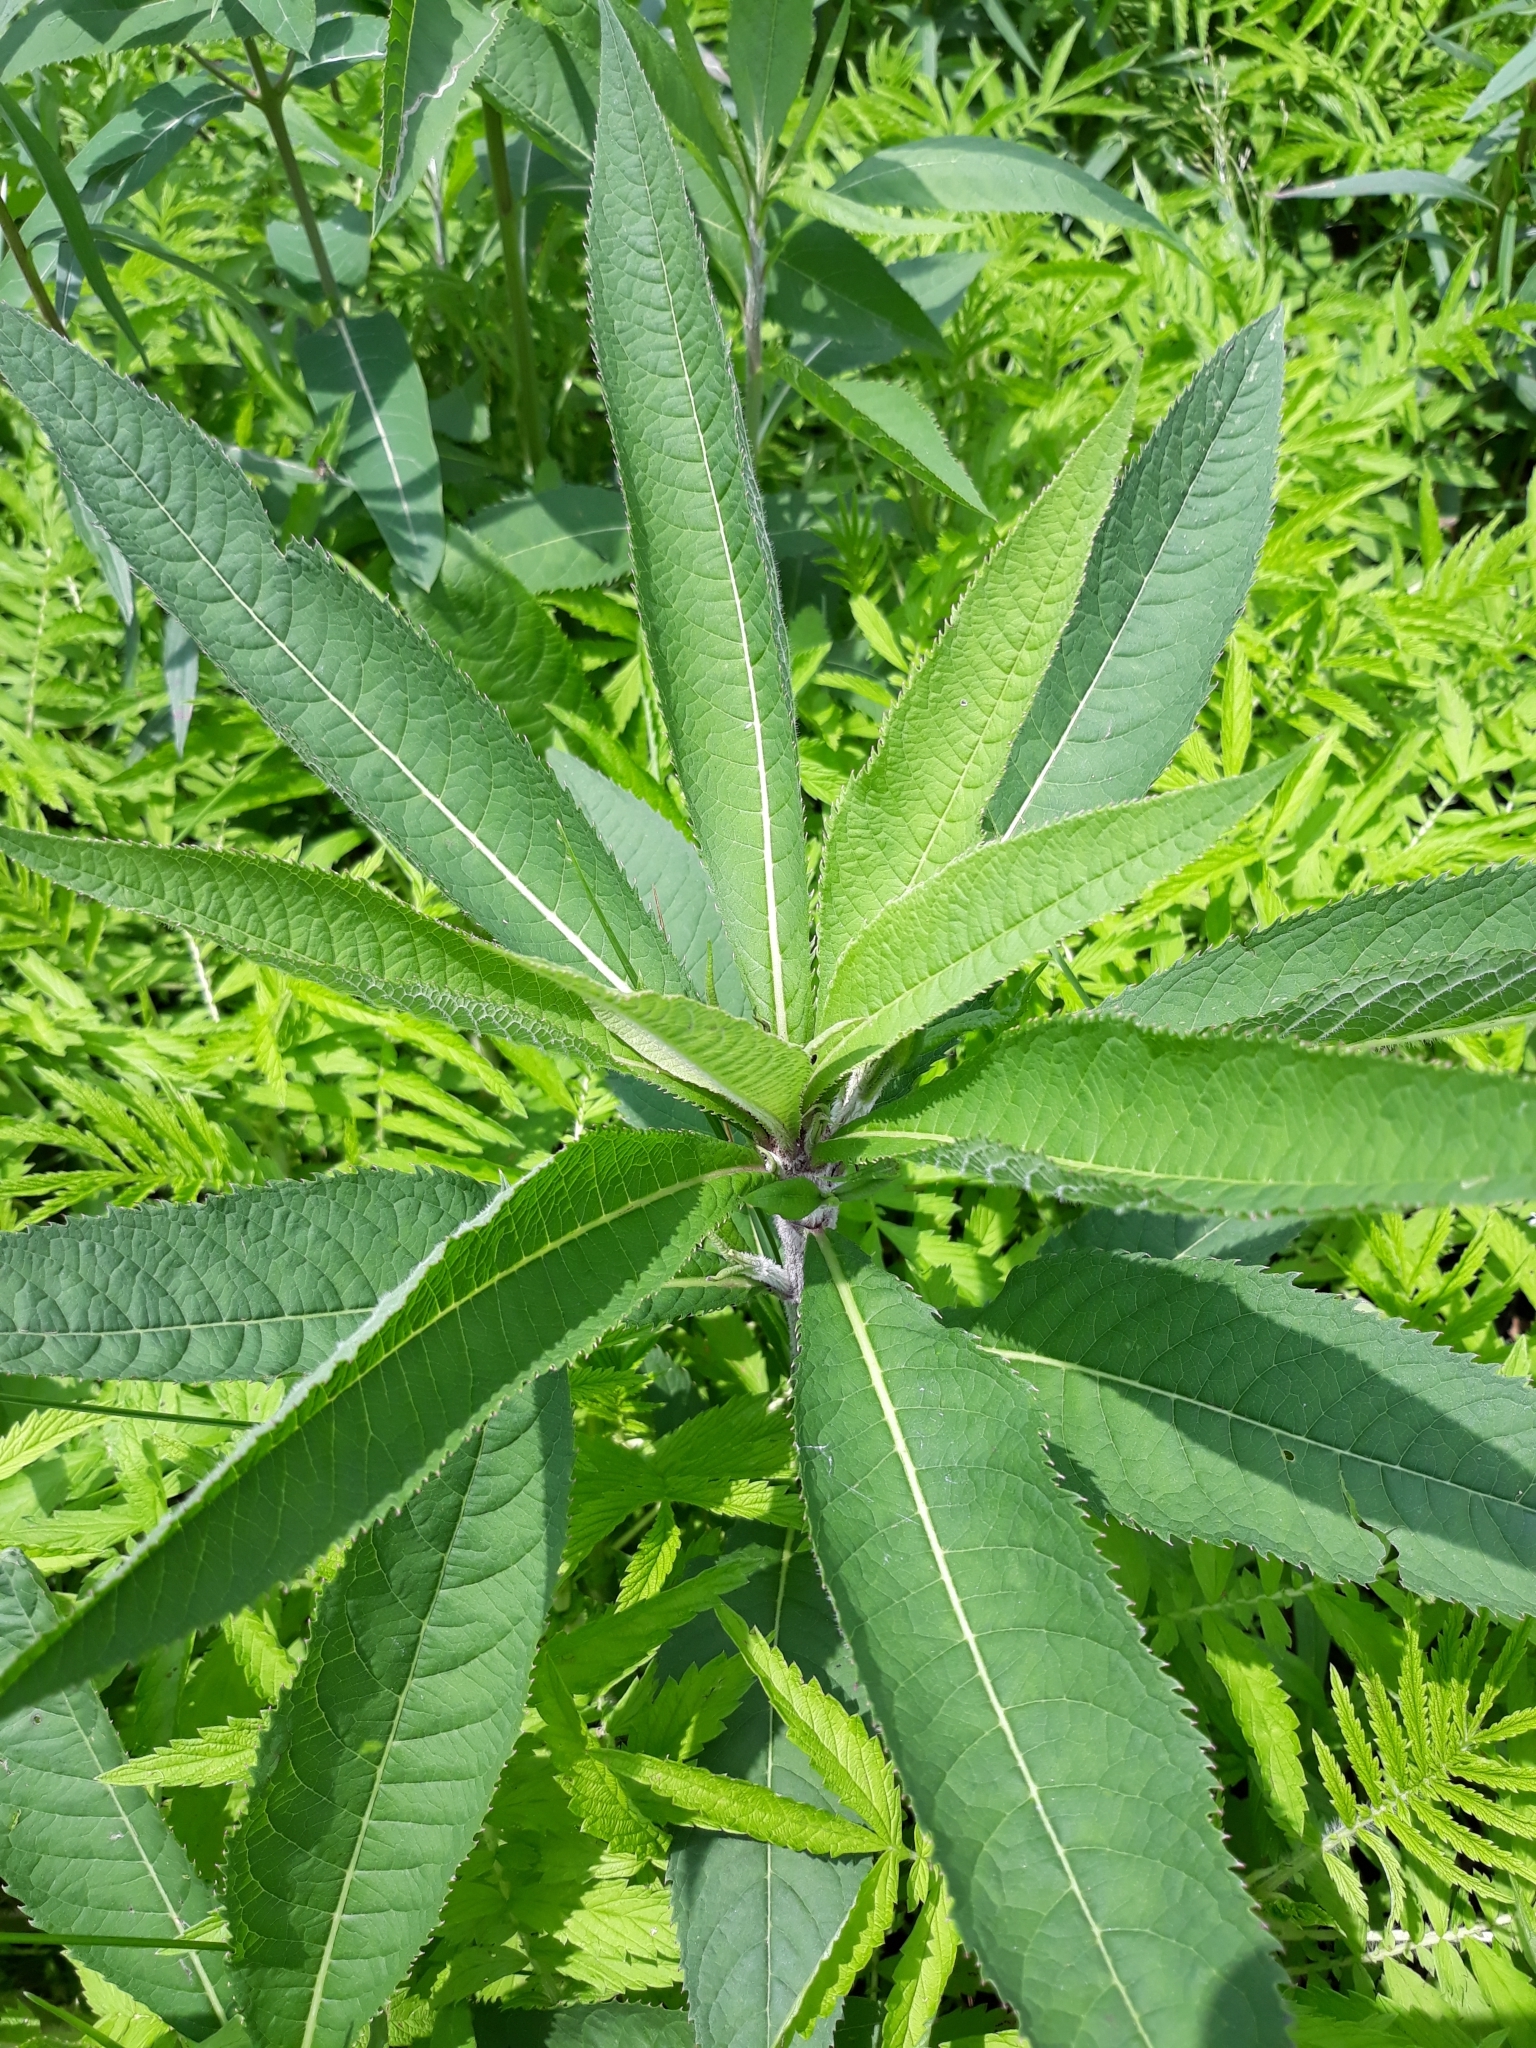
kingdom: Plantae
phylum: Tracheophyta
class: Magnoliopsida
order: Asterales
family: Asteraceae
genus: Vernonia
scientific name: Vernonia gigantea
